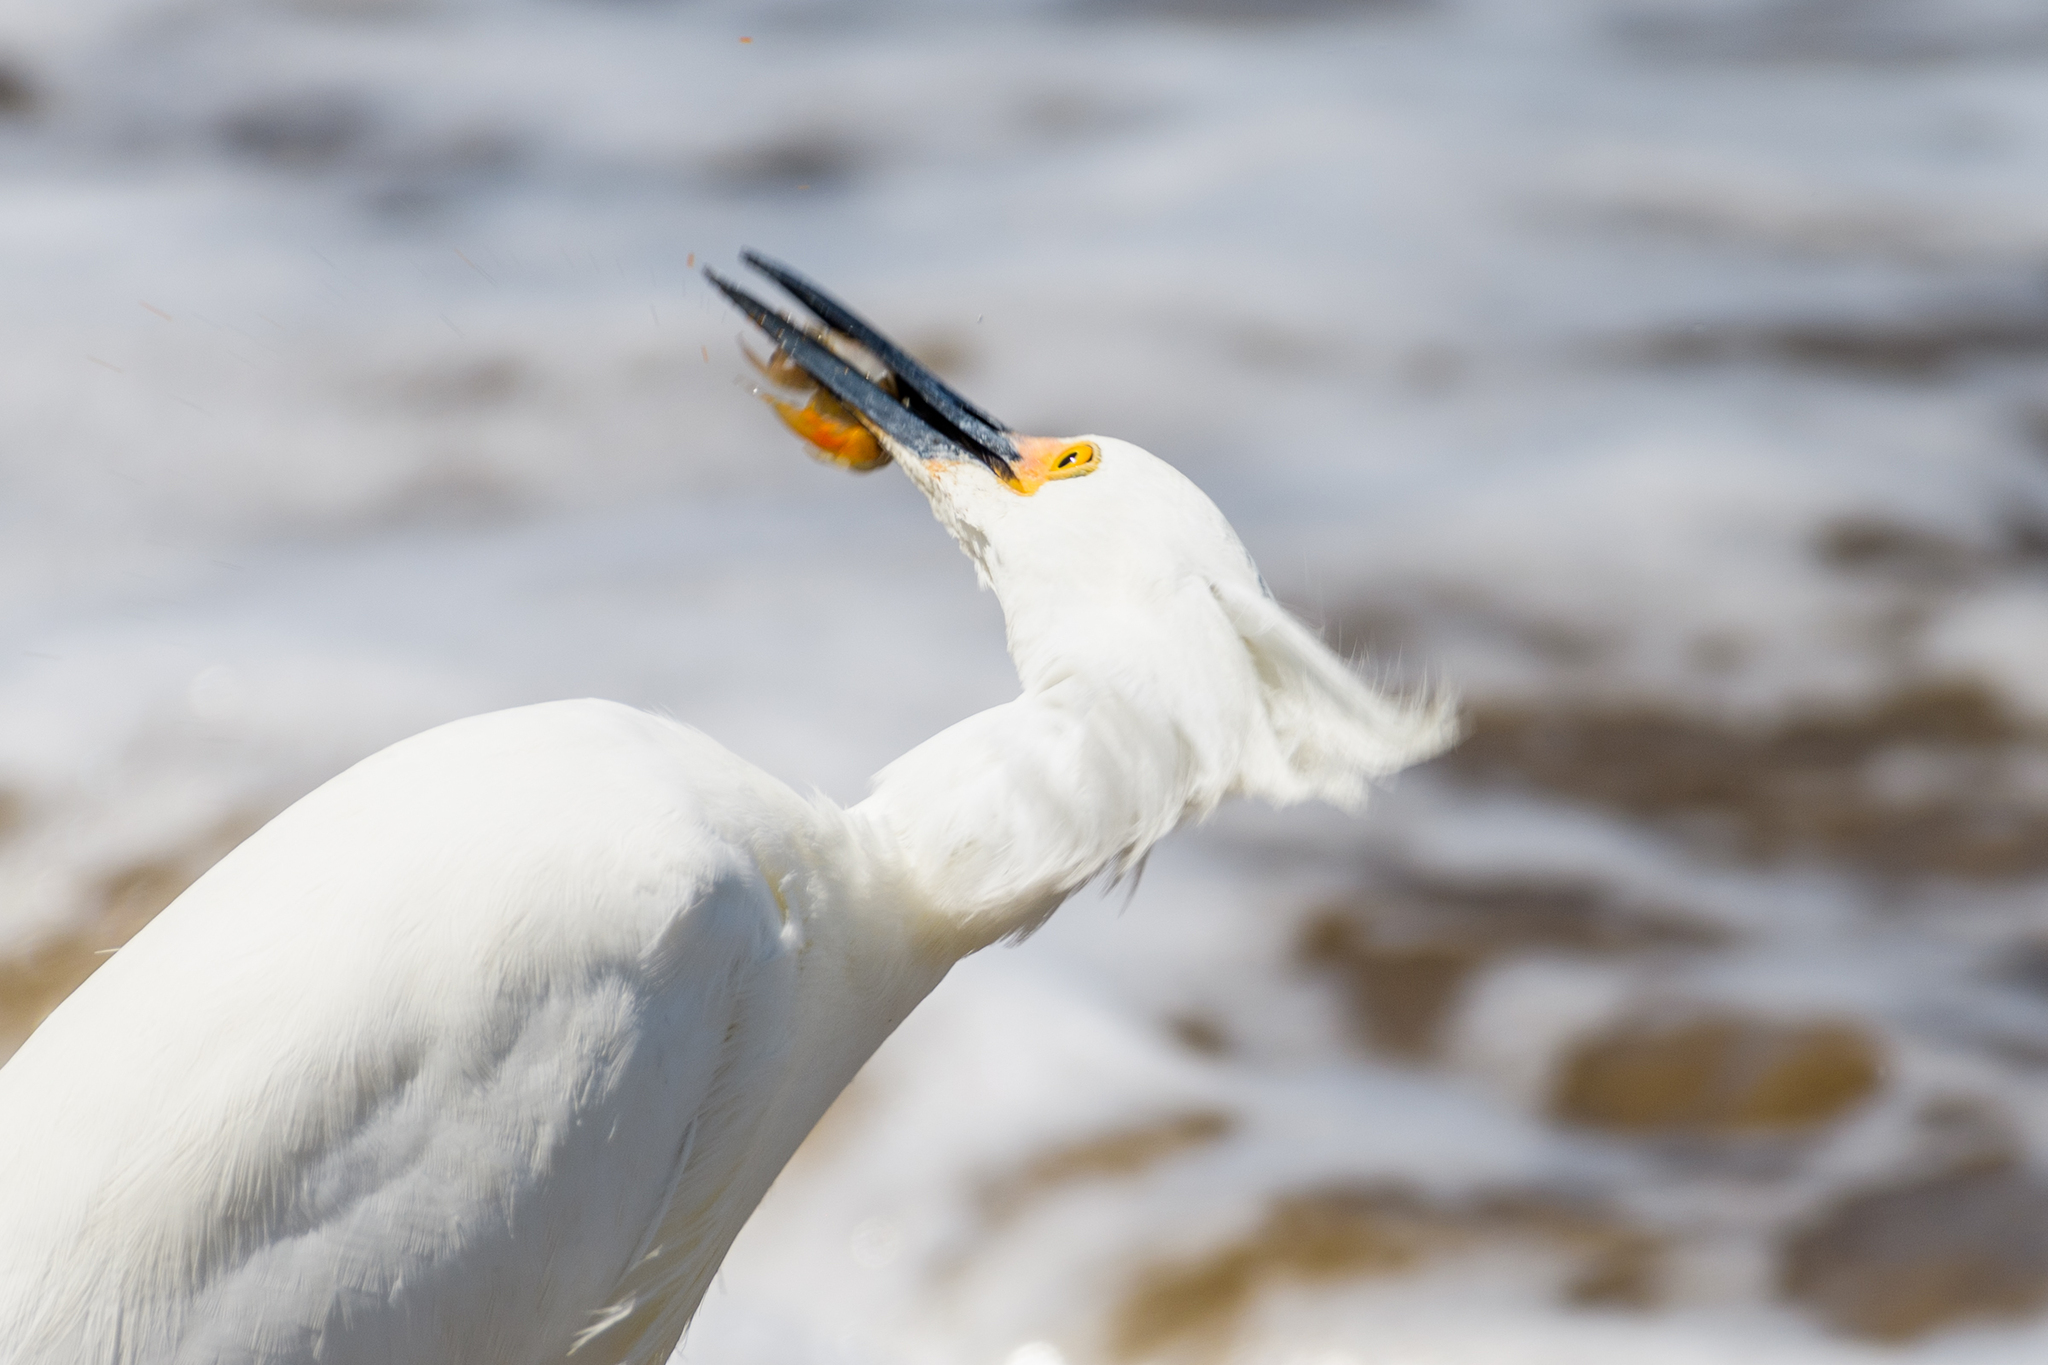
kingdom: Animalia
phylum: Chordata
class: Aves
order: Pelecaniformes
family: Ardeidae
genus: Egretta
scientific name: Egretta thula
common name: Snowy egret
